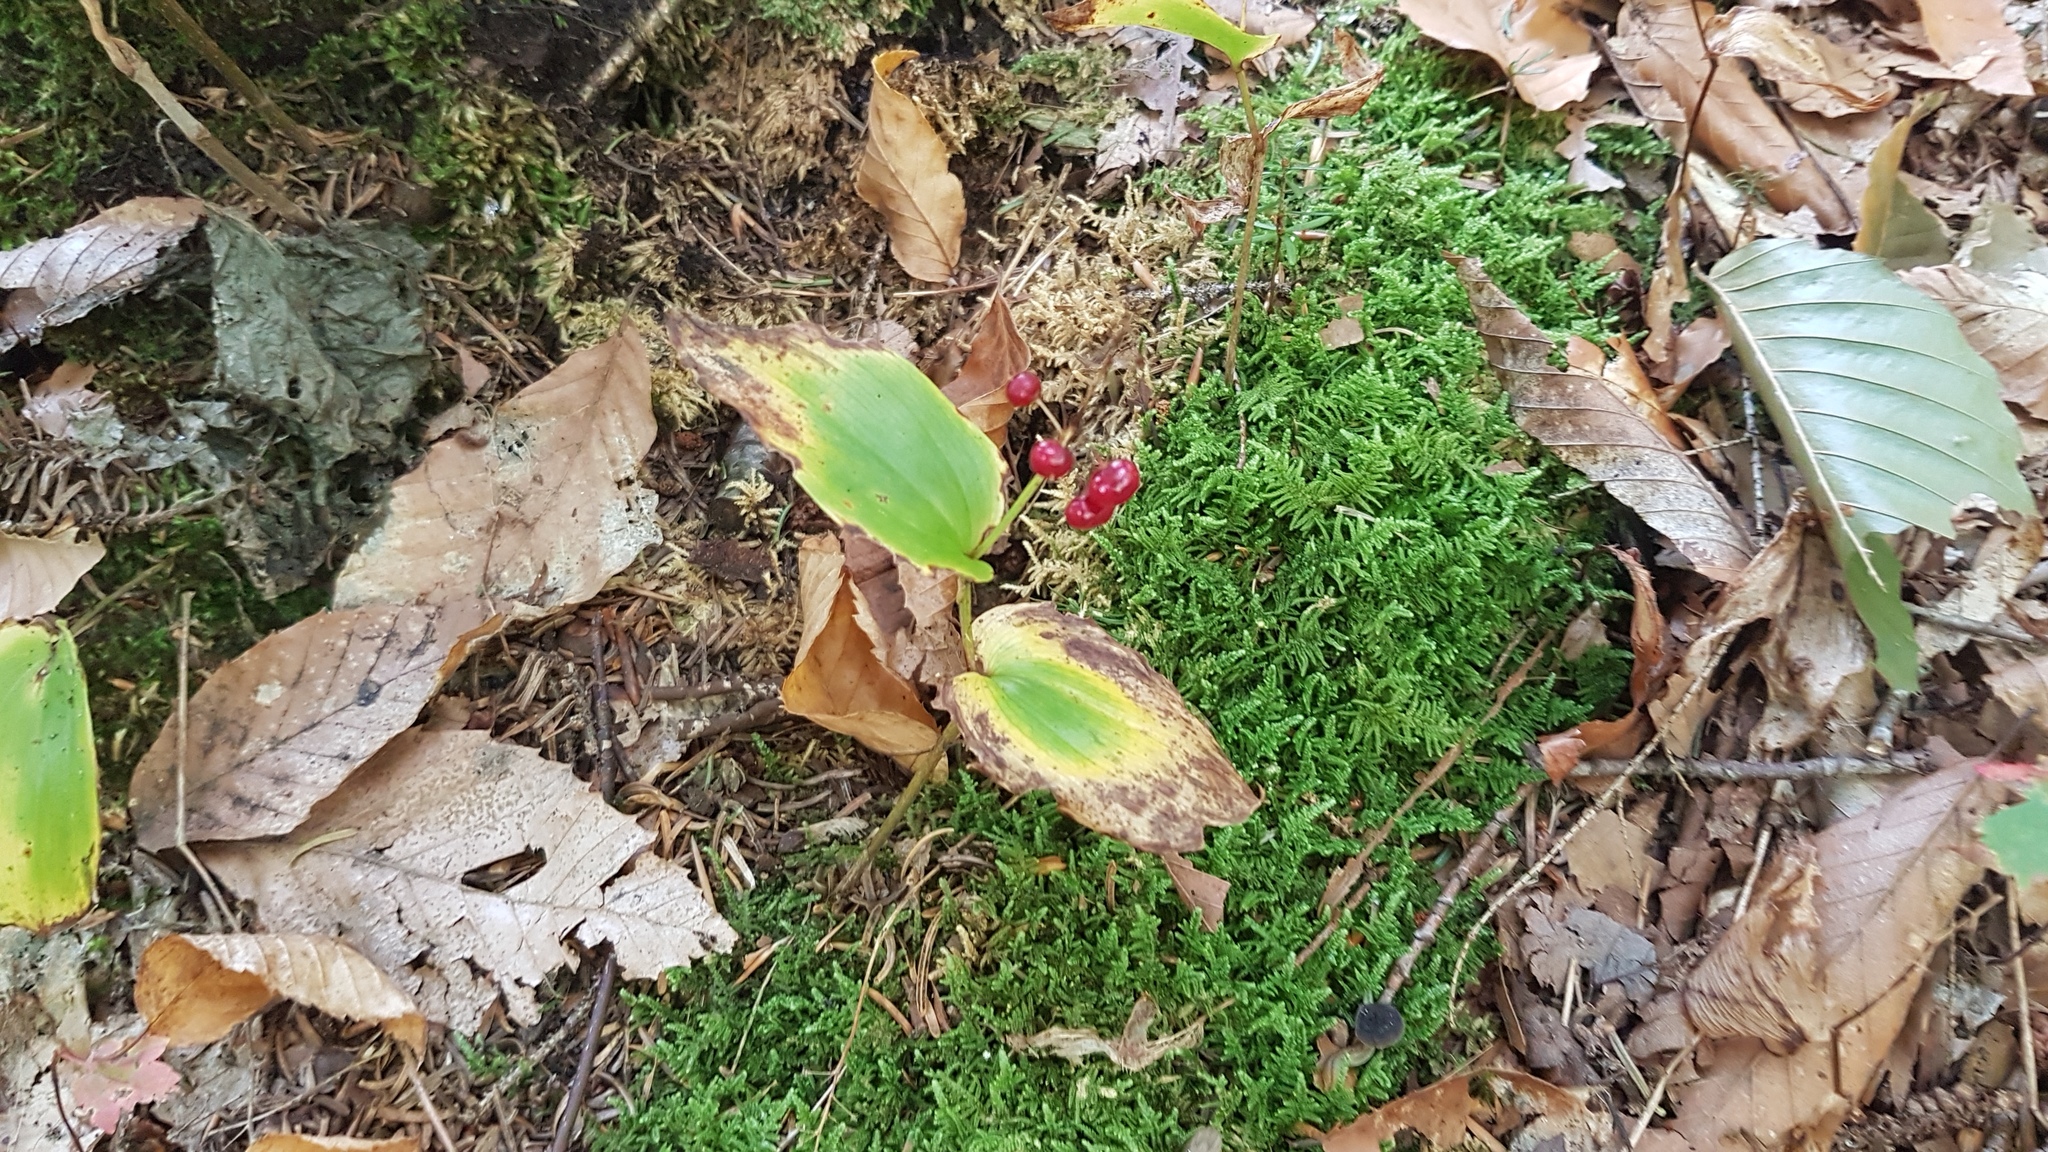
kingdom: Plantae
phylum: Tracheophyta
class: Liliopsida
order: Asparagales
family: Asparagaceae
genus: Maianthemum
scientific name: Maianthemum canadense
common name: False lily-of-the-valley
